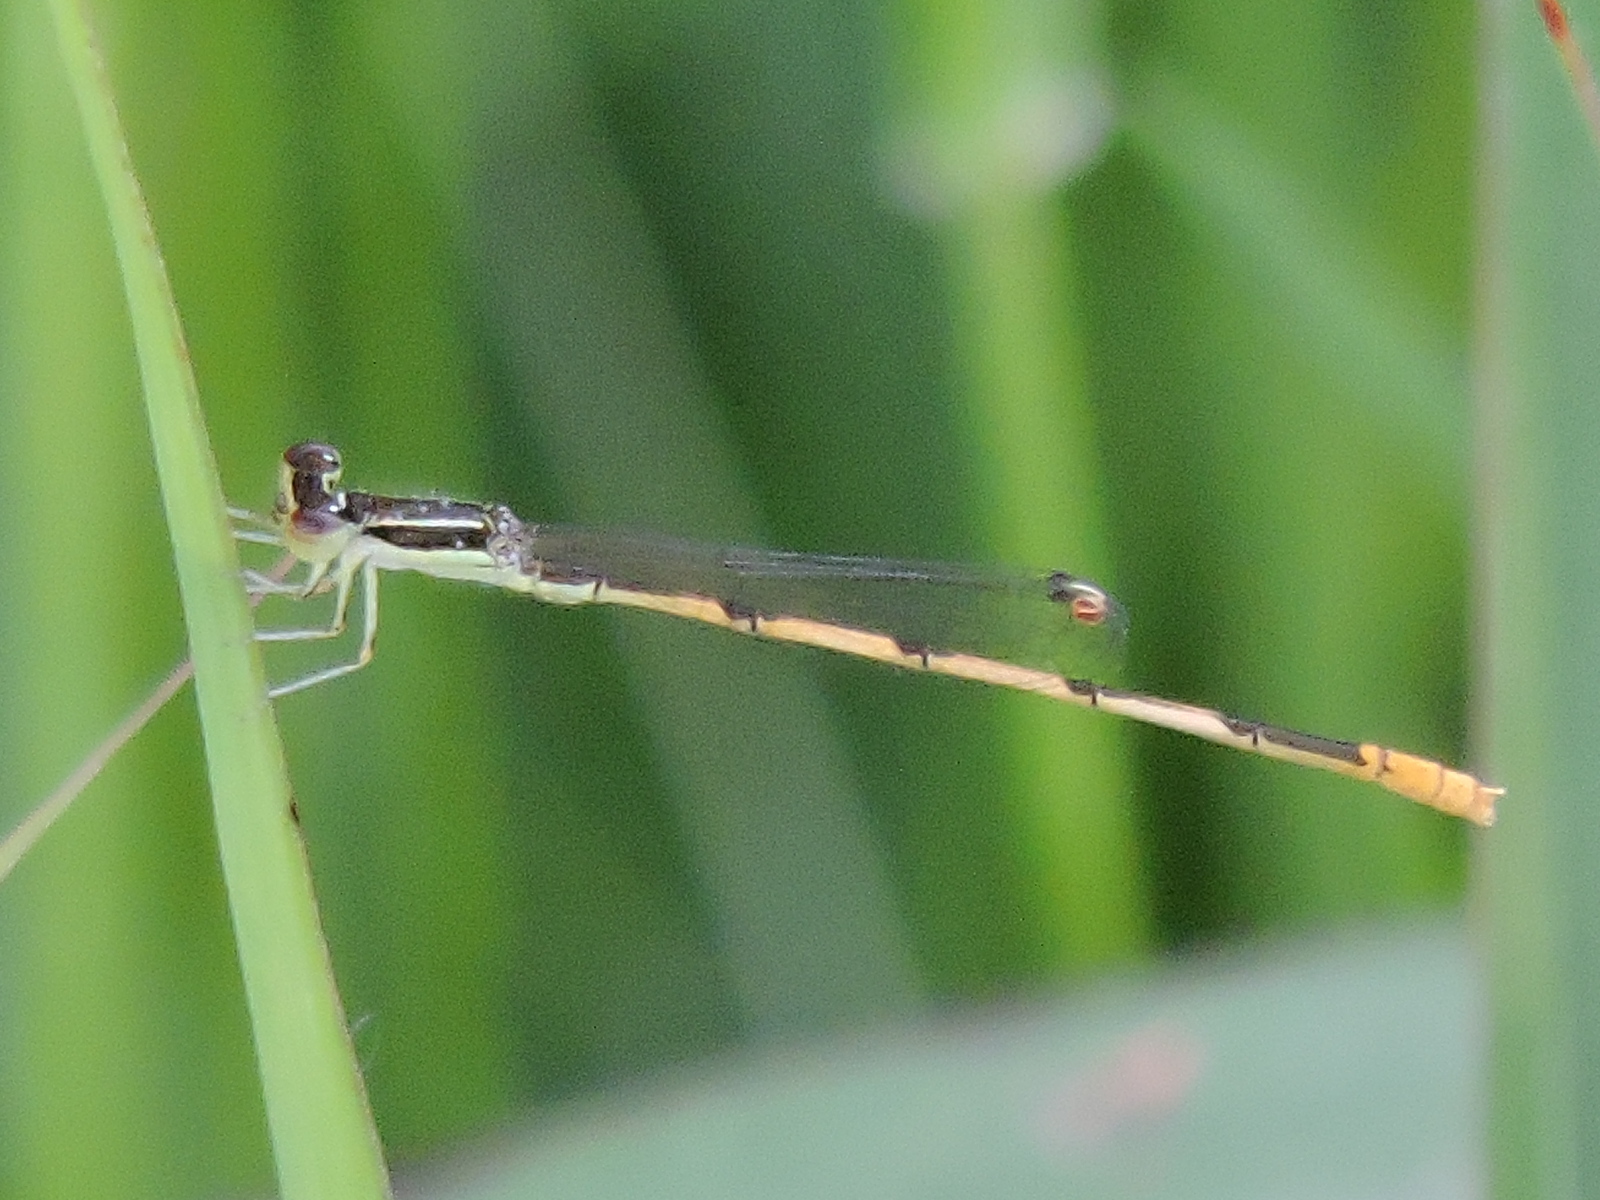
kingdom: Animalia
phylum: Arthropoda
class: Insecta
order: Odonata
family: Coenagrionidae
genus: Ischnura
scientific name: Ischnura hastata
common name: Citrine forktail
